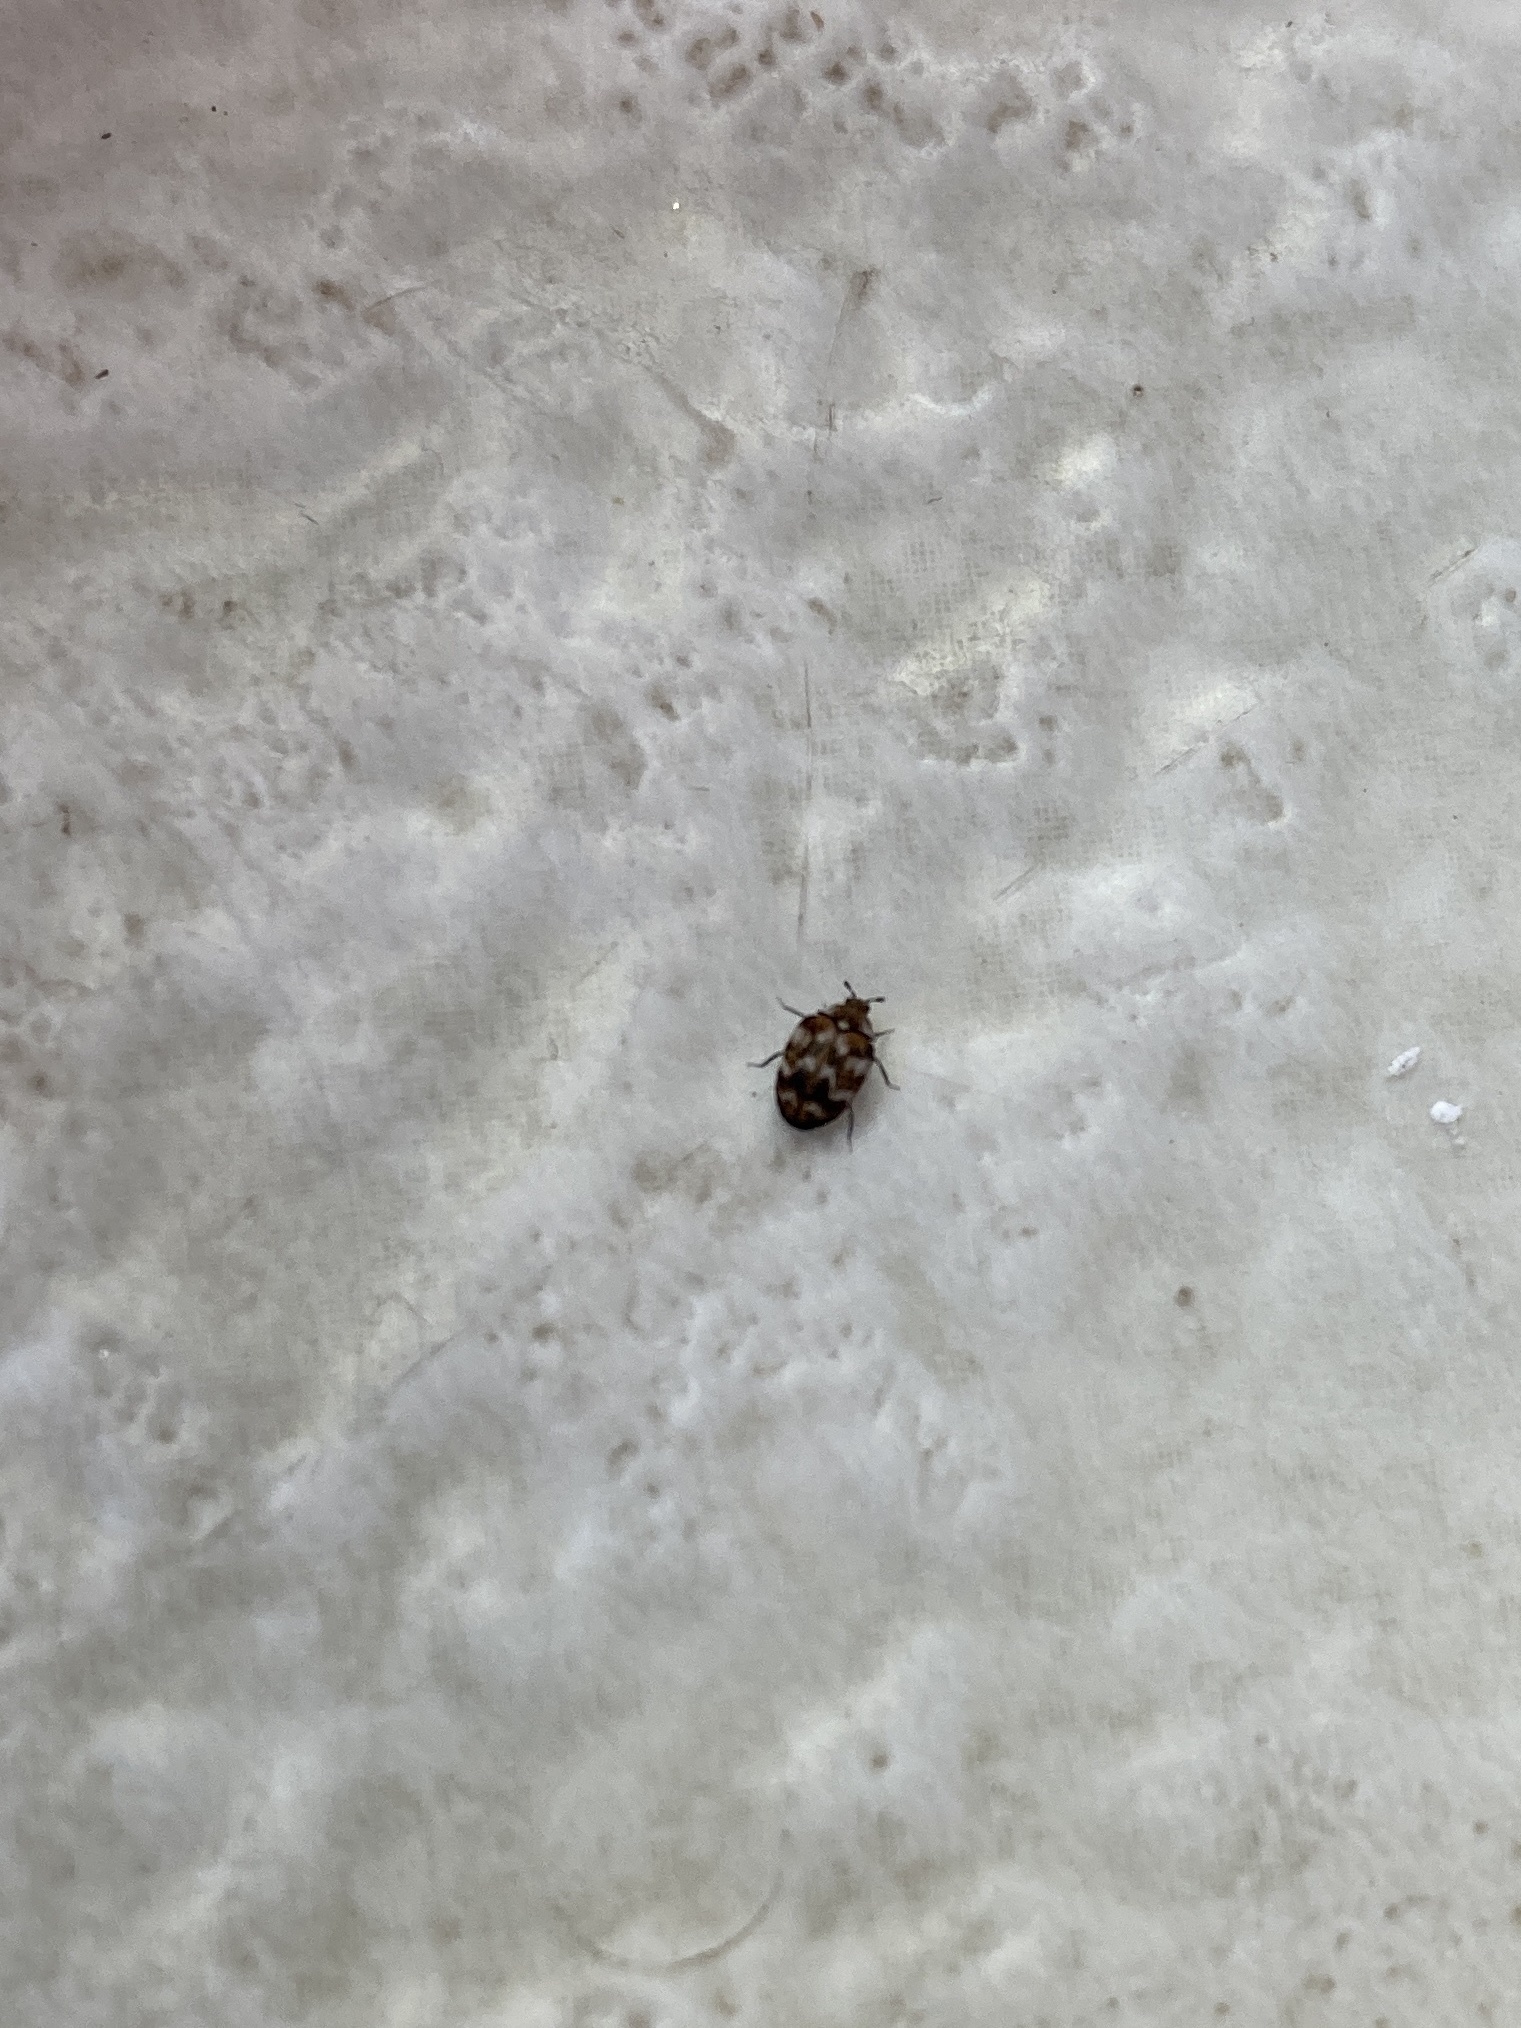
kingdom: Animalia
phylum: Arthropoda
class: Insecta
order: Coleoptera
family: Dermestidae
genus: Anthrenus
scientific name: Anthrenus verbasci
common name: Varied carpet beetle
